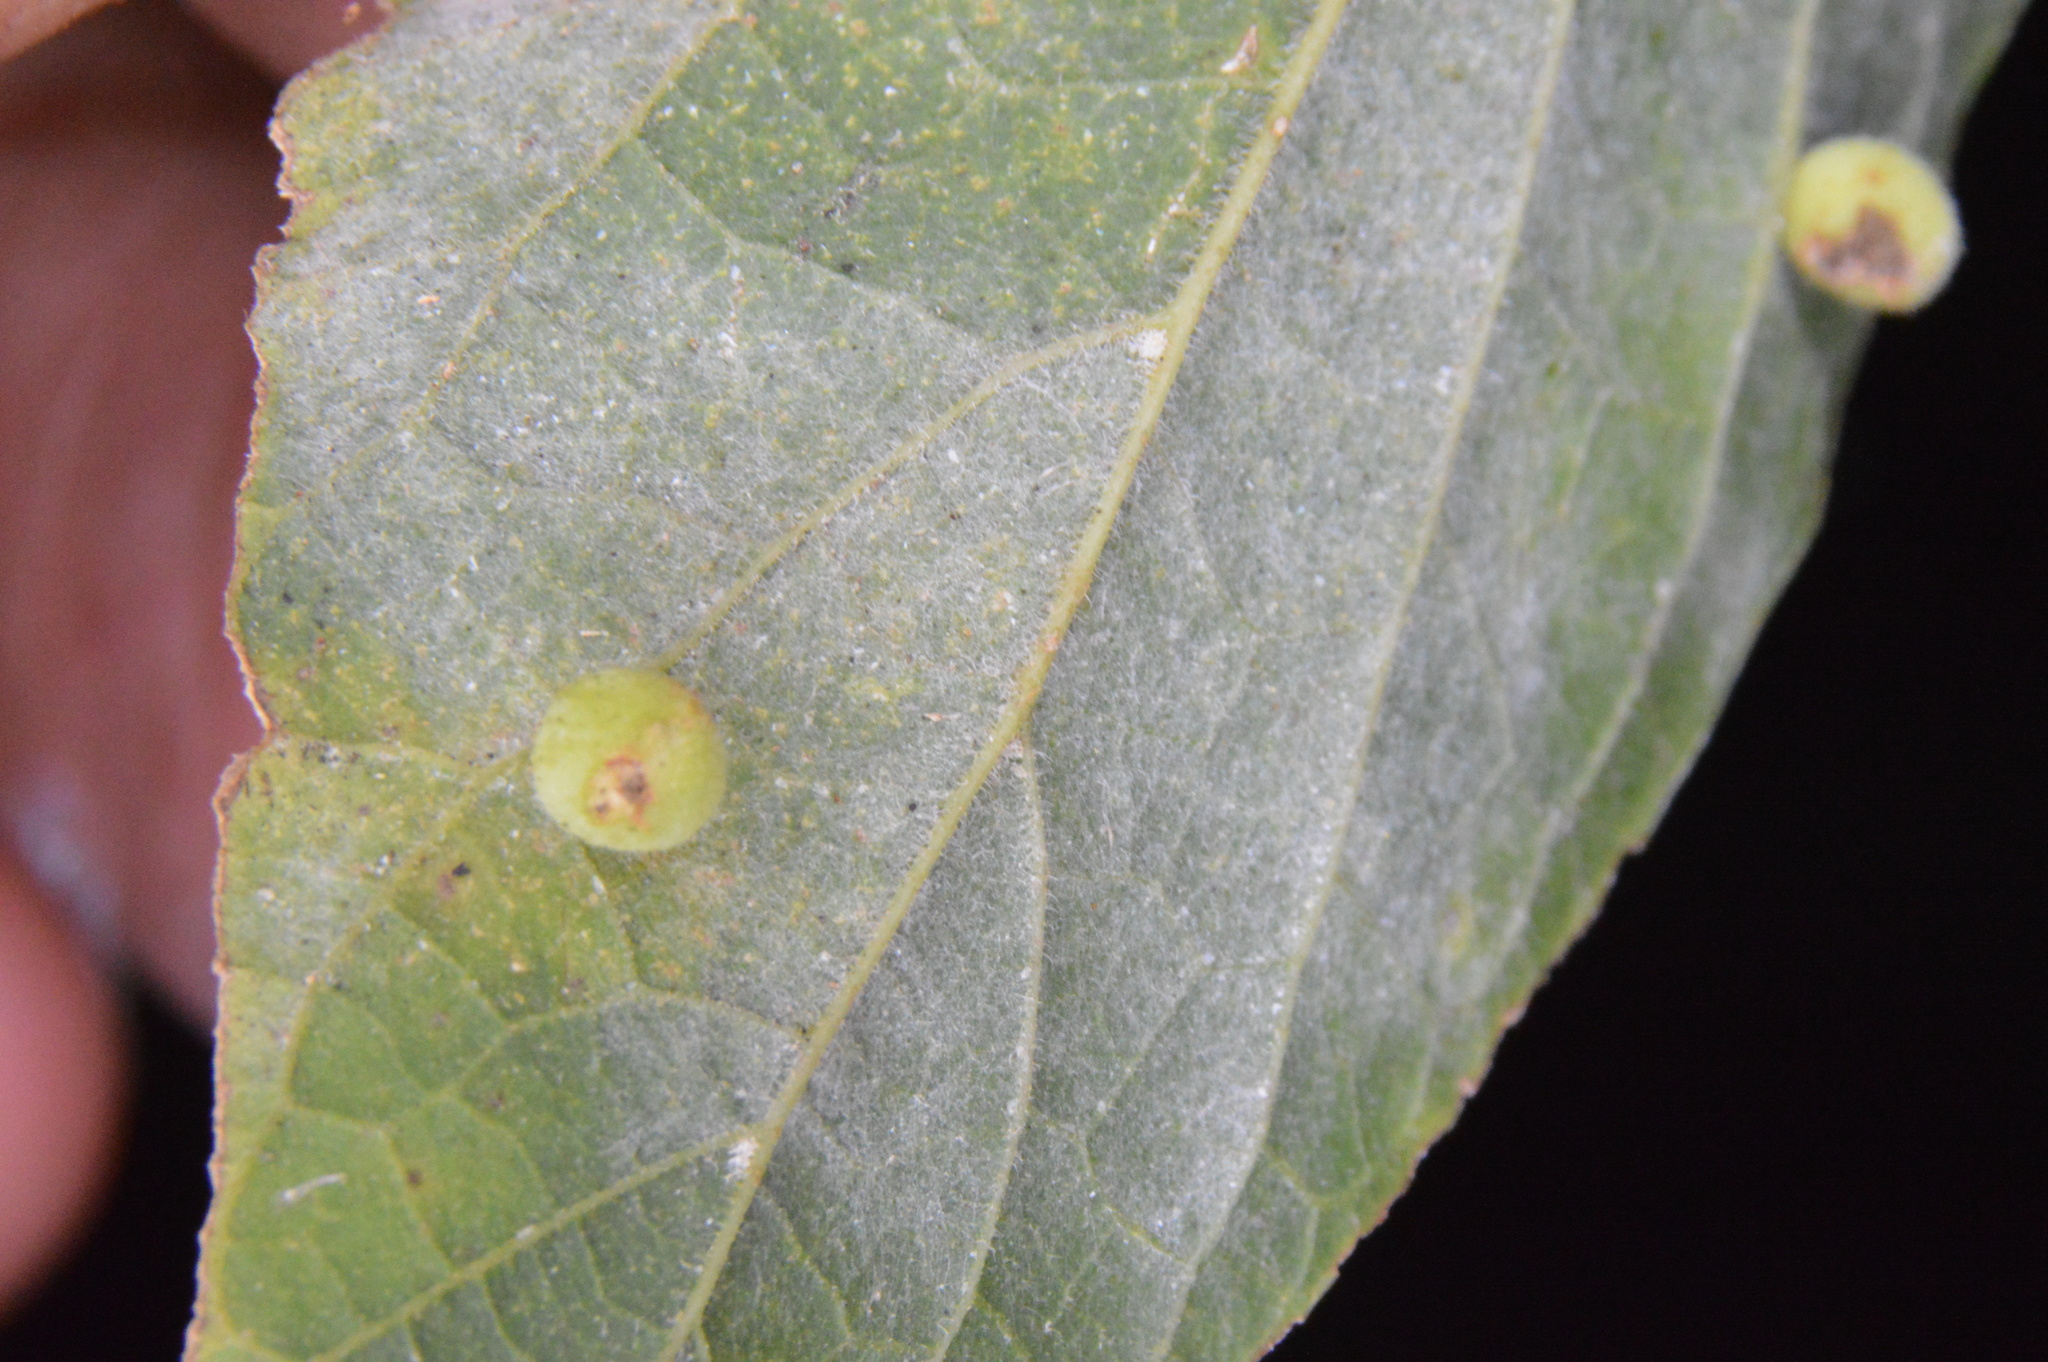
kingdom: Animalia
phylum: Arthropoda
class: Insecta
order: Diptera
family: Cecidomyiidae
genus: Celticecis
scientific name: Celticecis globosa
